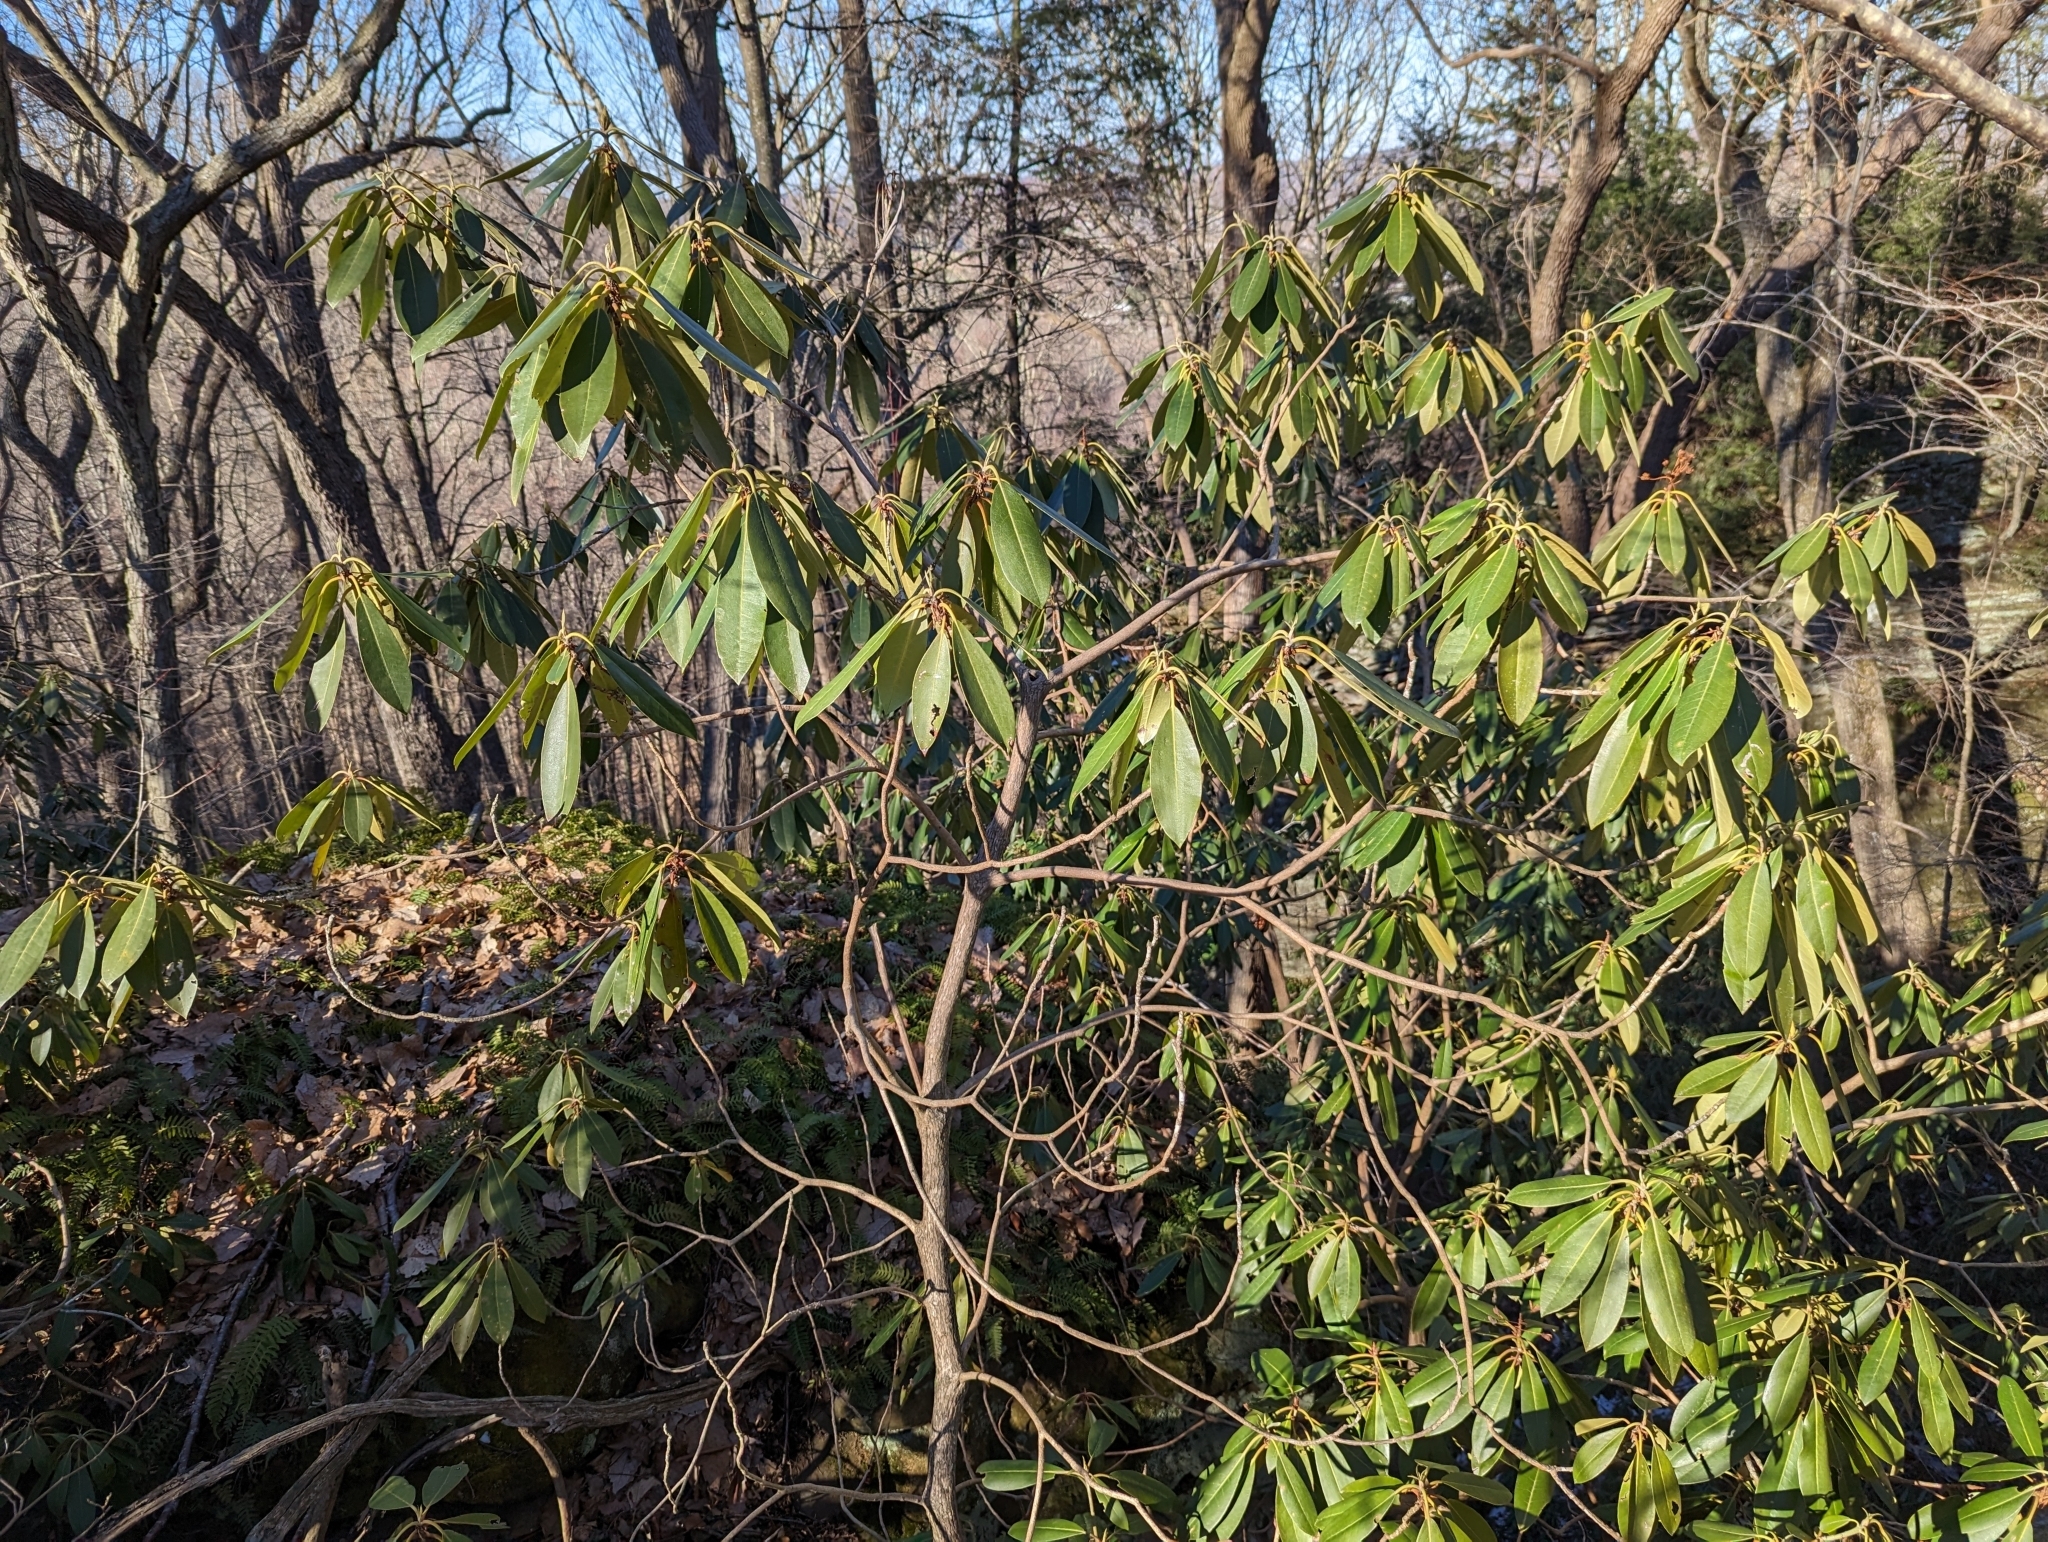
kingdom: Plantae
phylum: Tracheophyta
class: Magnoliopsida
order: Ericales
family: Ericaceae
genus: Rhododendron
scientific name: Rhododendron maximum
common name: Great rhododendron
